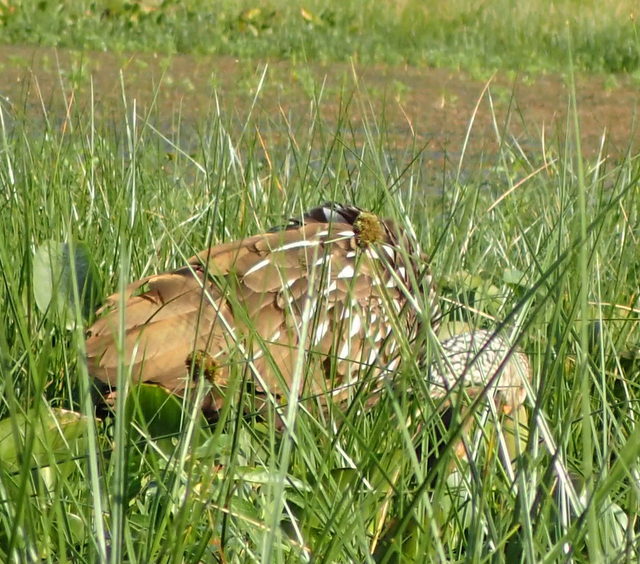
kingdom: Animalia
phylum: Chordata
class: Aves
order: Gruiformes
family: Aramidae
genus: Aramus
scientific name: Aramus guarauna
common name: Limpkin
